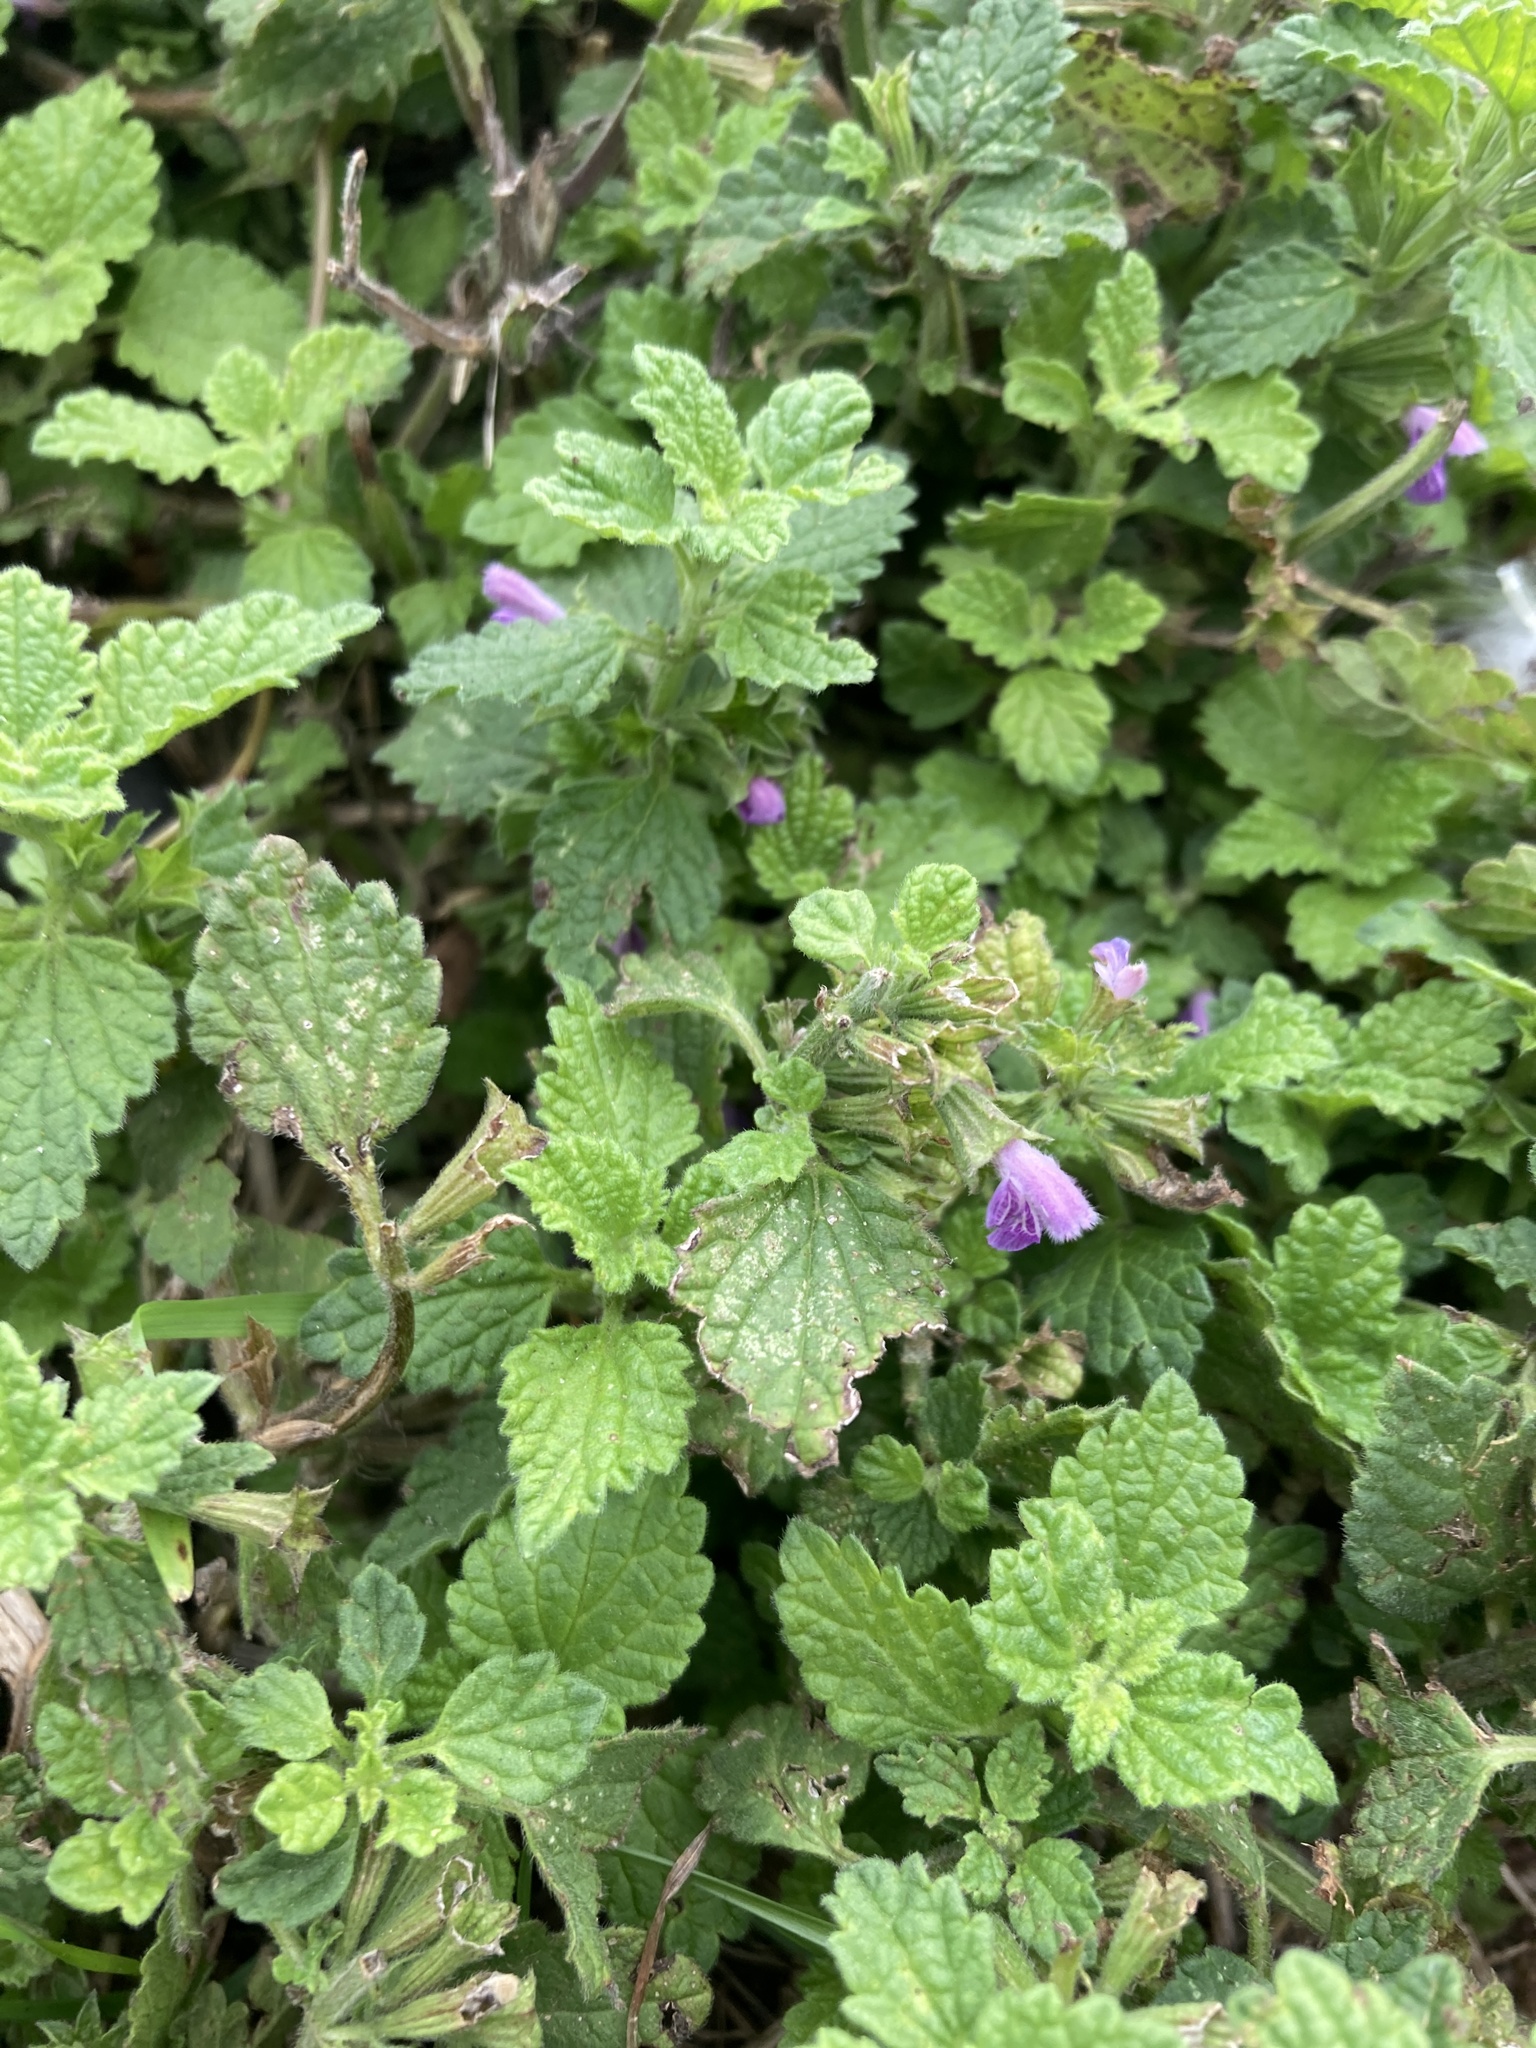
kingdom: Plantae
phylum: Tracheophyta
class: Magnoliopsida
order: Lamiales
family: Lamiaceae
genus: Ballota
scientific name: Ballota nigra
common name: Black horehound
